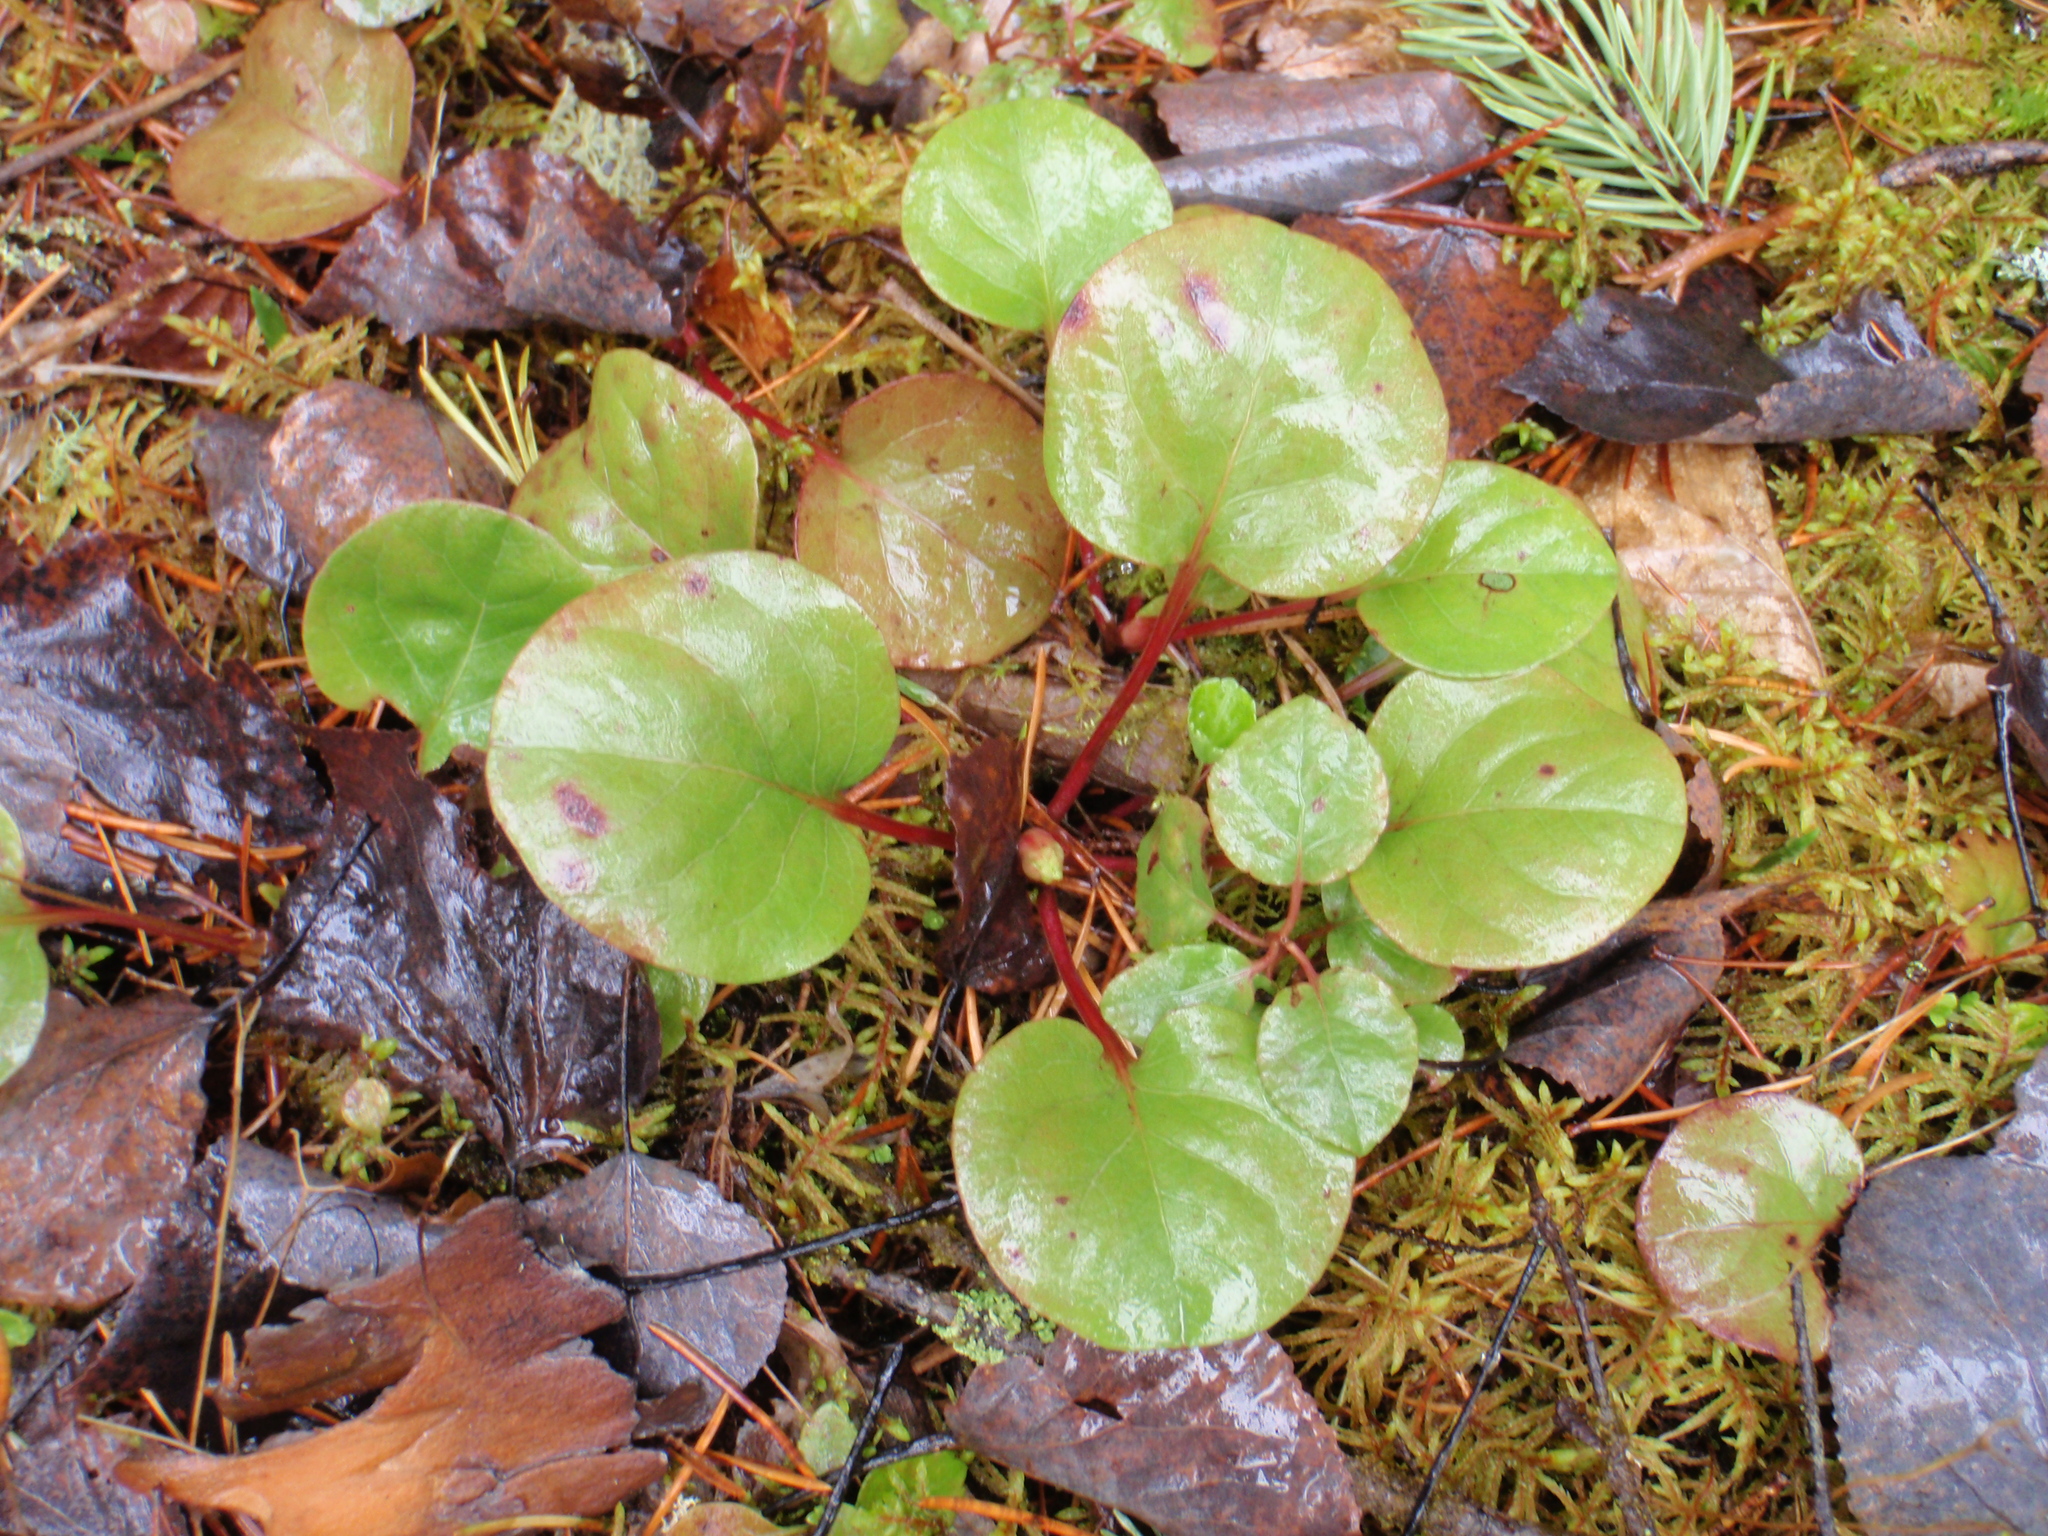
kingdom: Plantae
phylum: Tracheophyta
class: Magnoliopsida
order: Ericales
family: Ericaceae
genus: Pyrola
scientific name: Pyrola asarifolia
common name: Bog wintergreen
